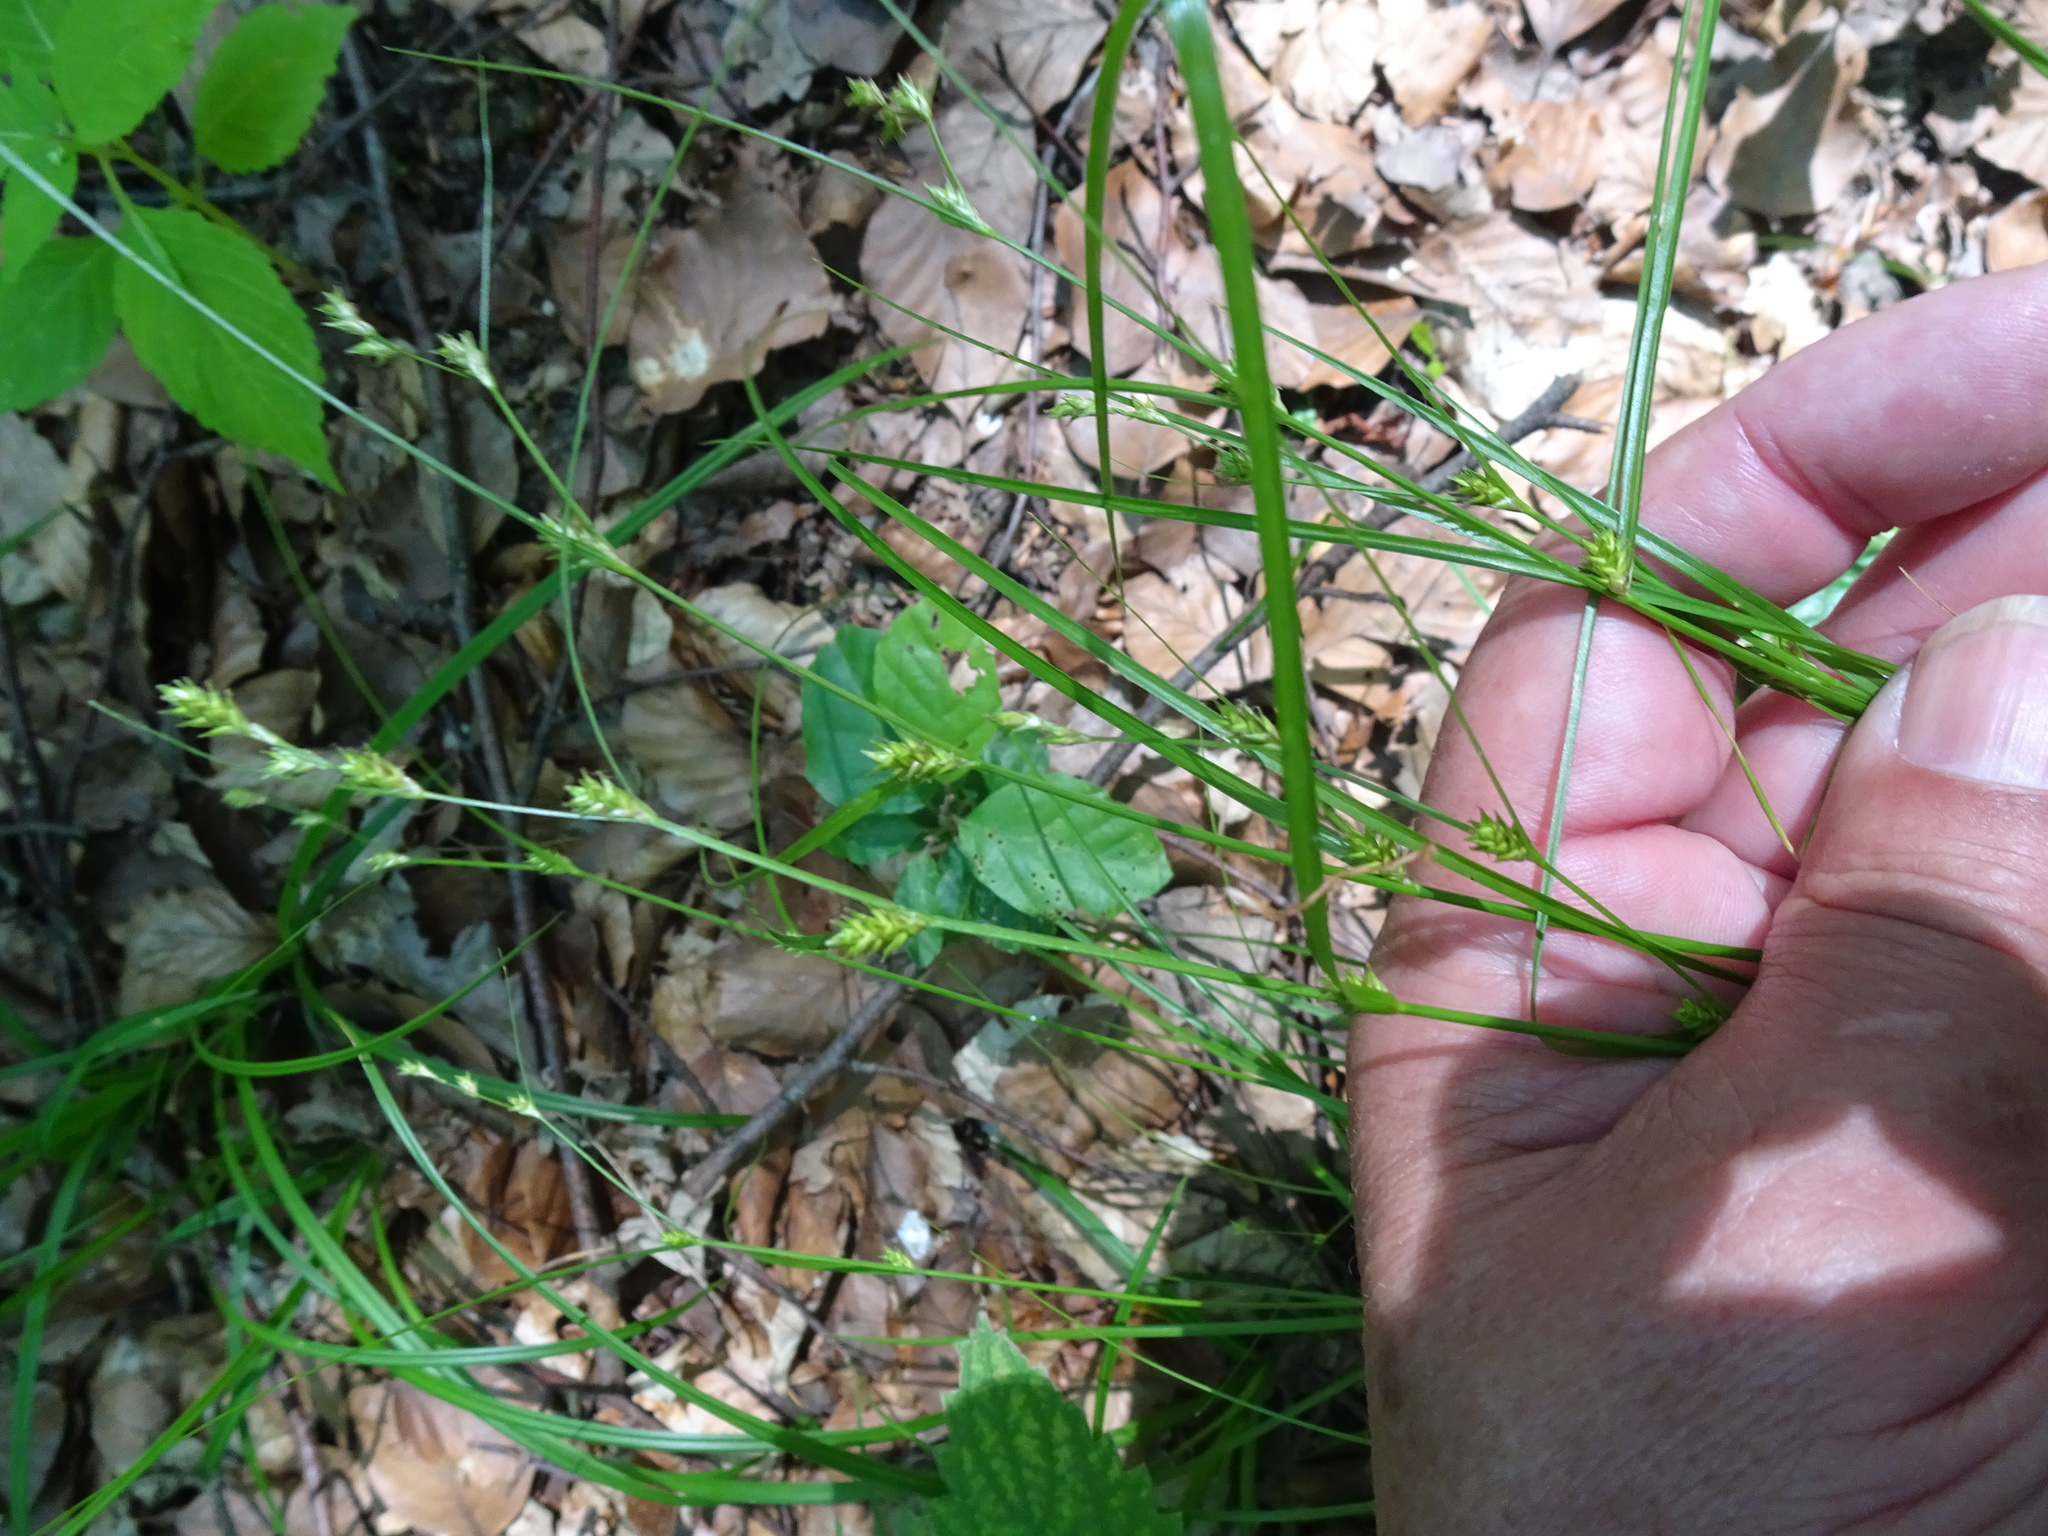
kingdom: Plantae
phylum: Tracheophyta
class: Liliopsida
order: Poales
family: Cyperaceae
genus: Carex
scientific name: Carex remota
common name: Remote sedge
